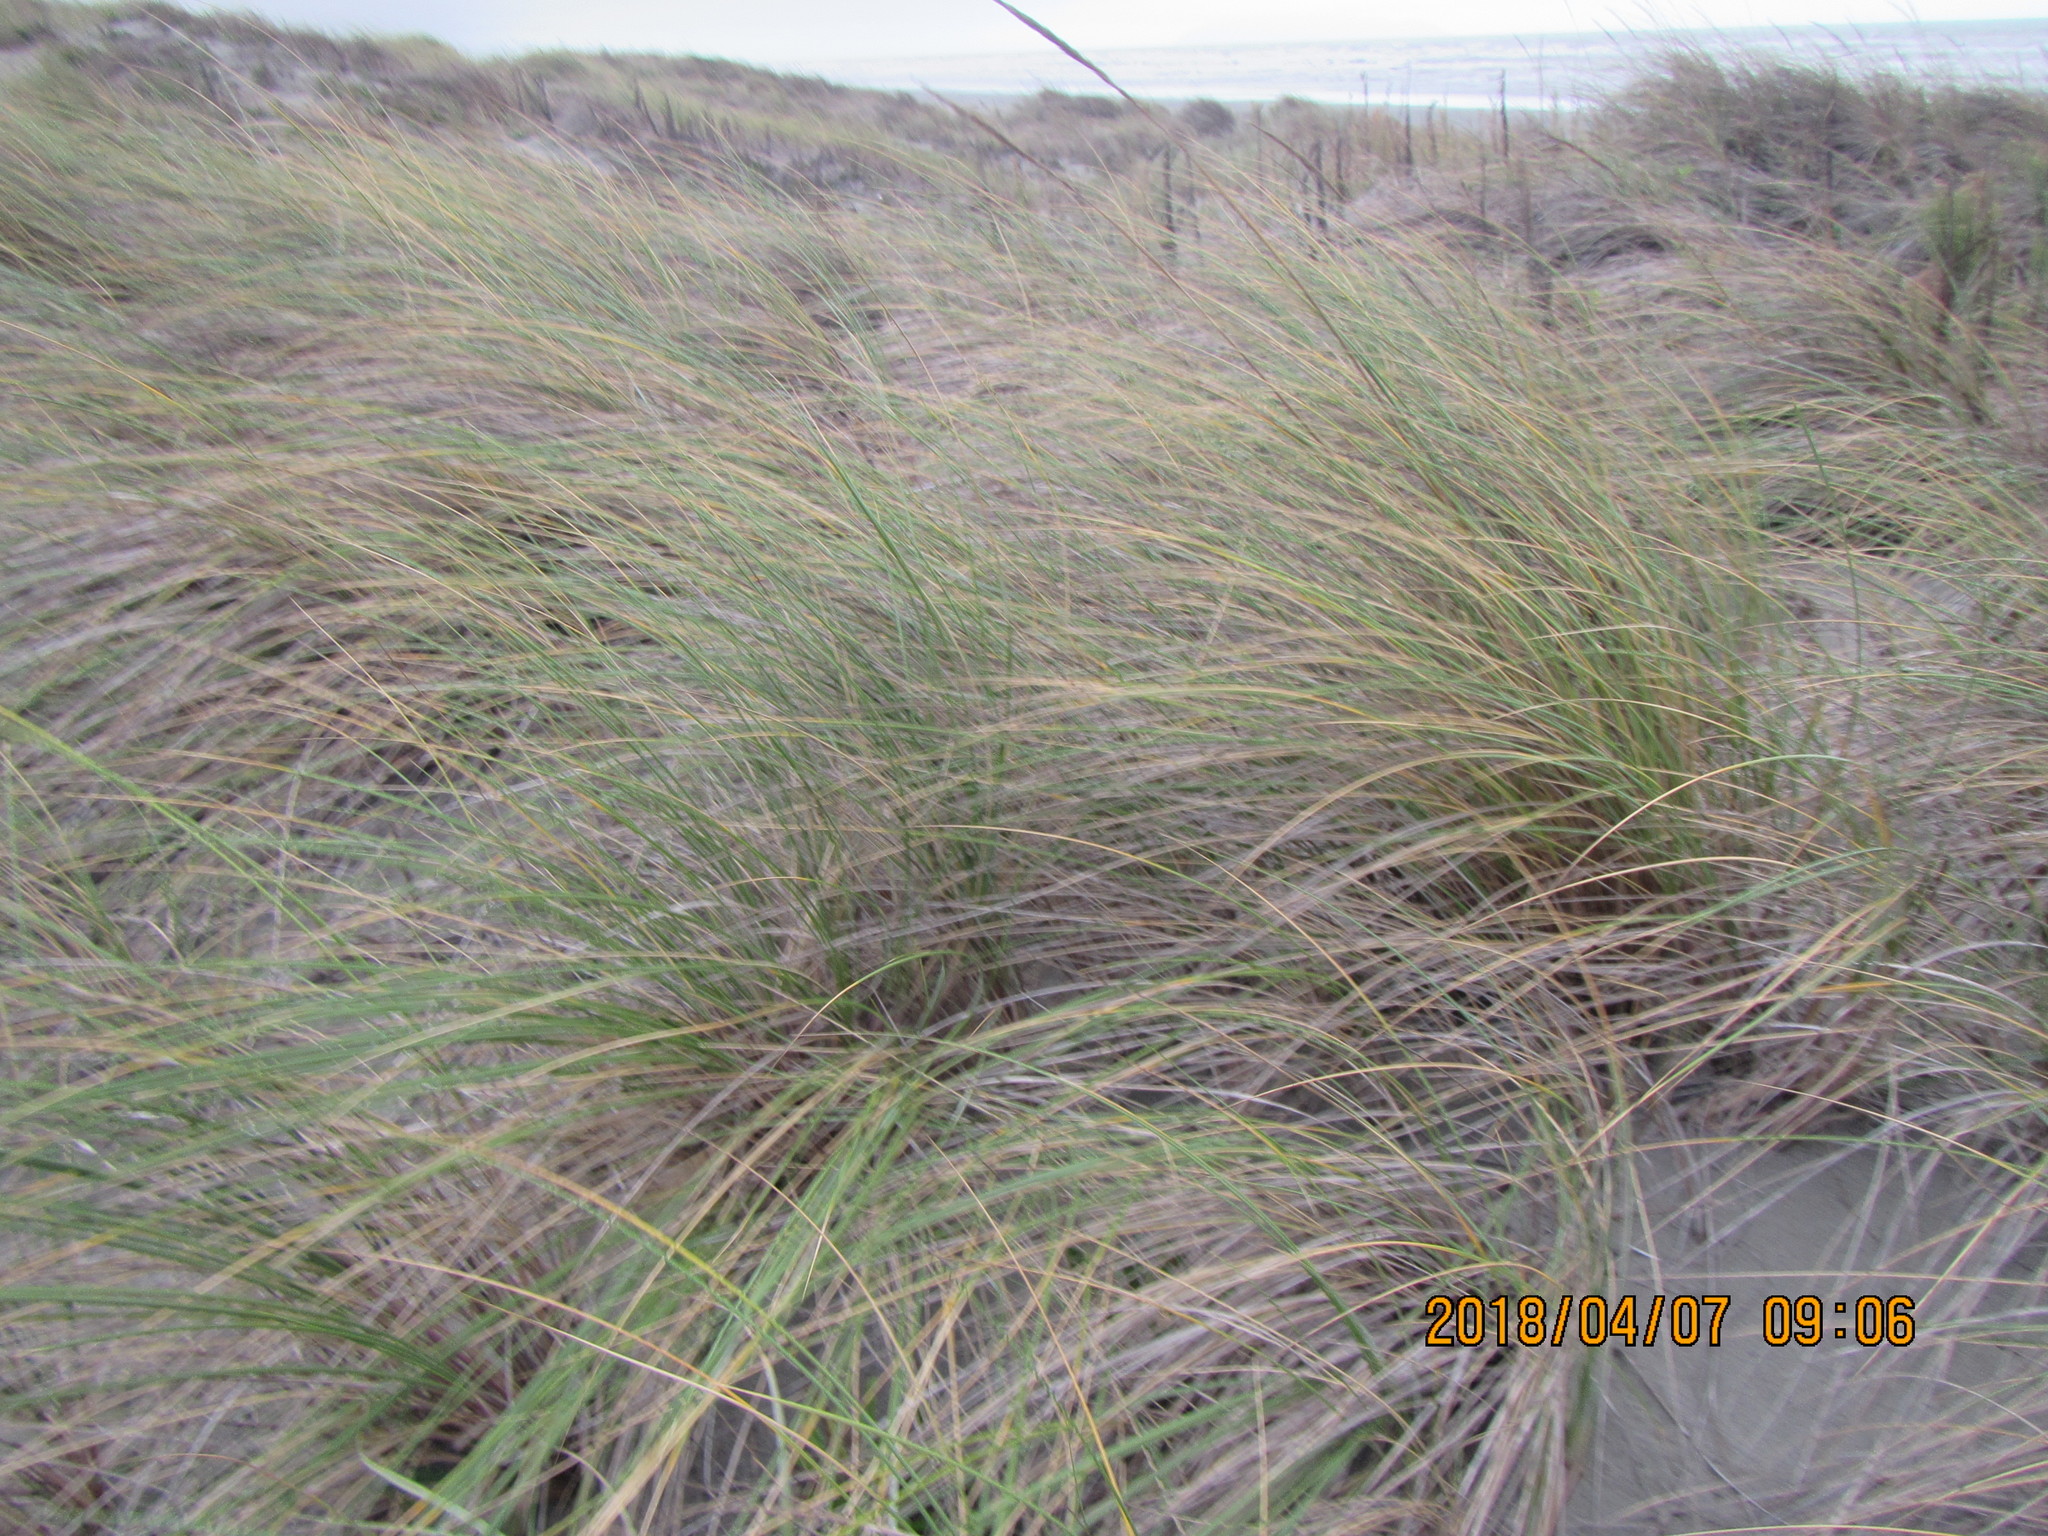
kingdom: Plantae
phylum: Tracheophyta
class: Liliopsida
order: Poales
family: Poaceae
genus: Calamagrostis
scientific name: Calamagrostis arenaria
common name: European beachgrass
